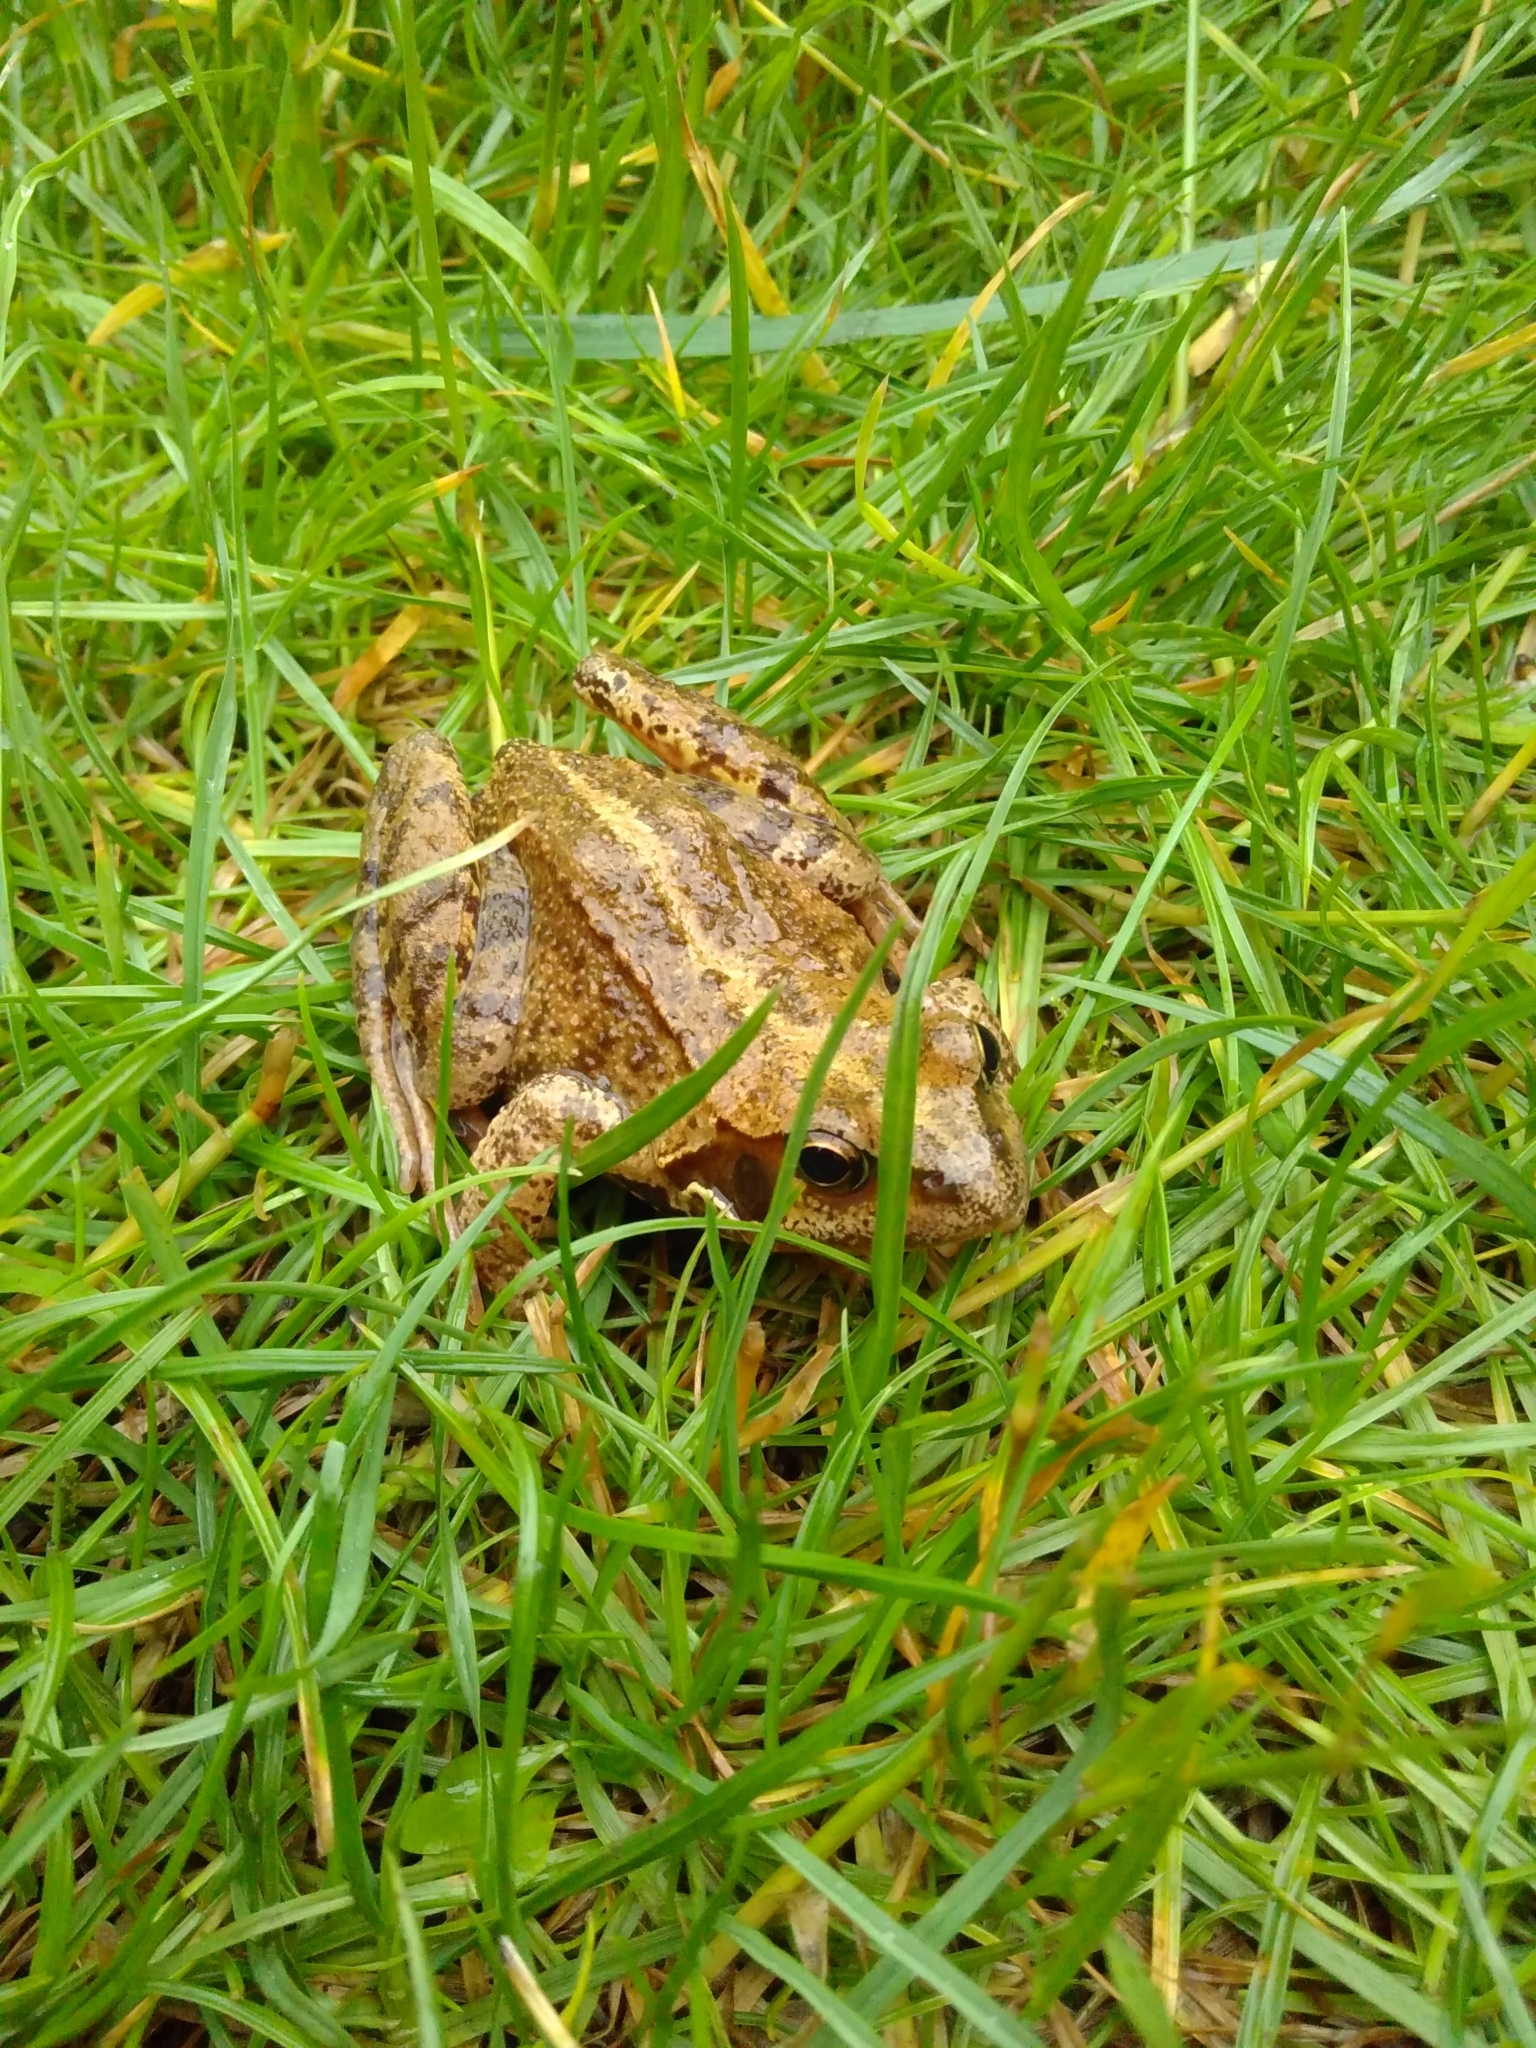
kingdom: Animalia
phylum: Chordata
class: Amphibia
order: Anura
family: Ranidae
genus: Rana
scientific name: Rana temporaria
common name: Common frog
